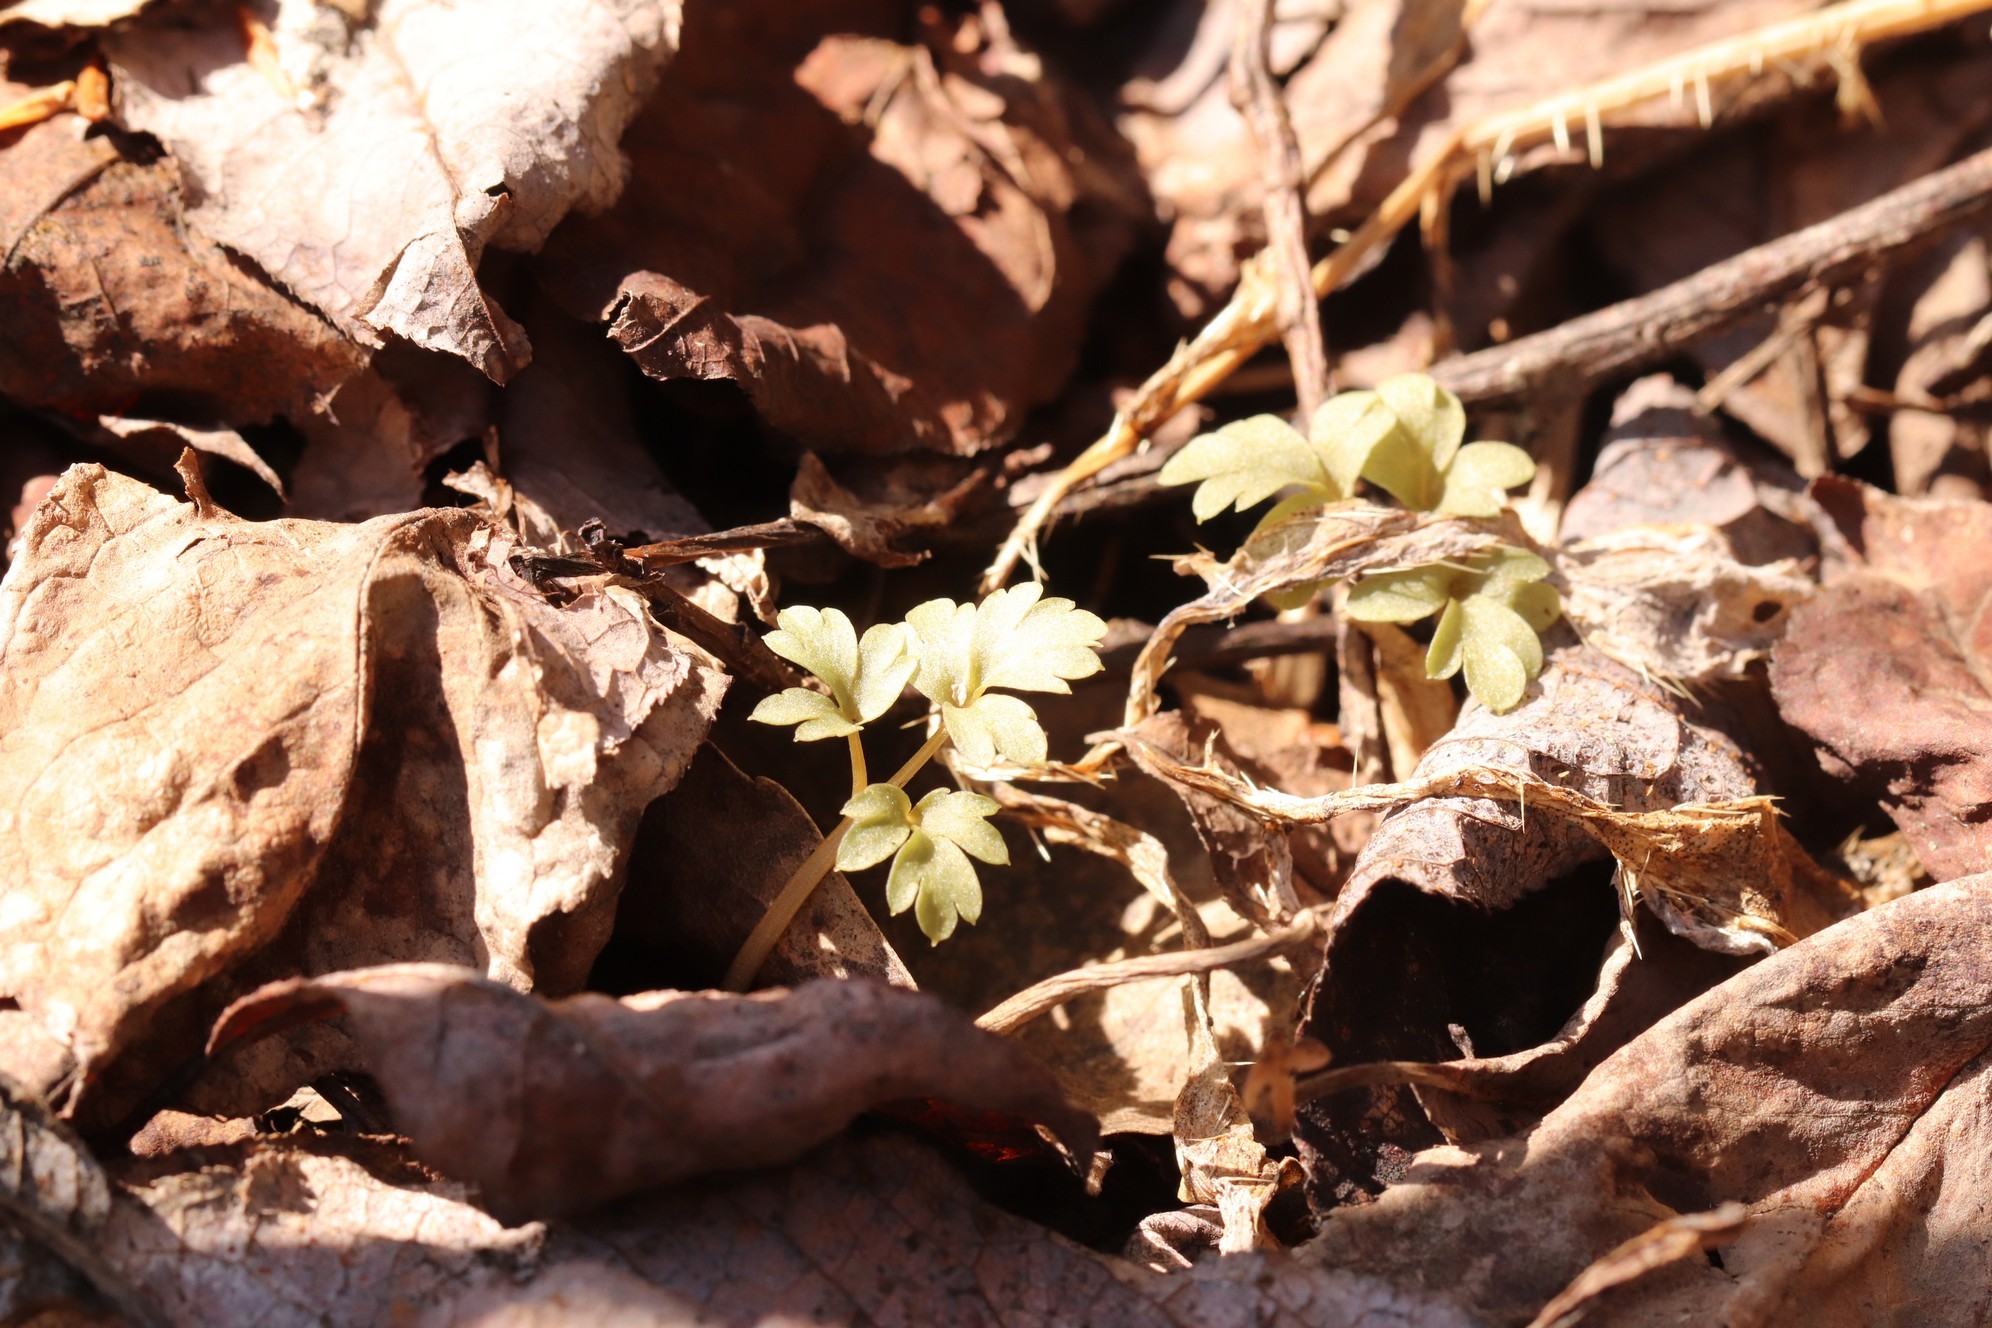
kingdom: Plantae
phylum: Tracheophyta
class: Magnoliopsida
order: Dipsacales
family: Viburnaceae
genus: Adoxa
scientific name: Adoxa moschatellina
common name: Moschatel
